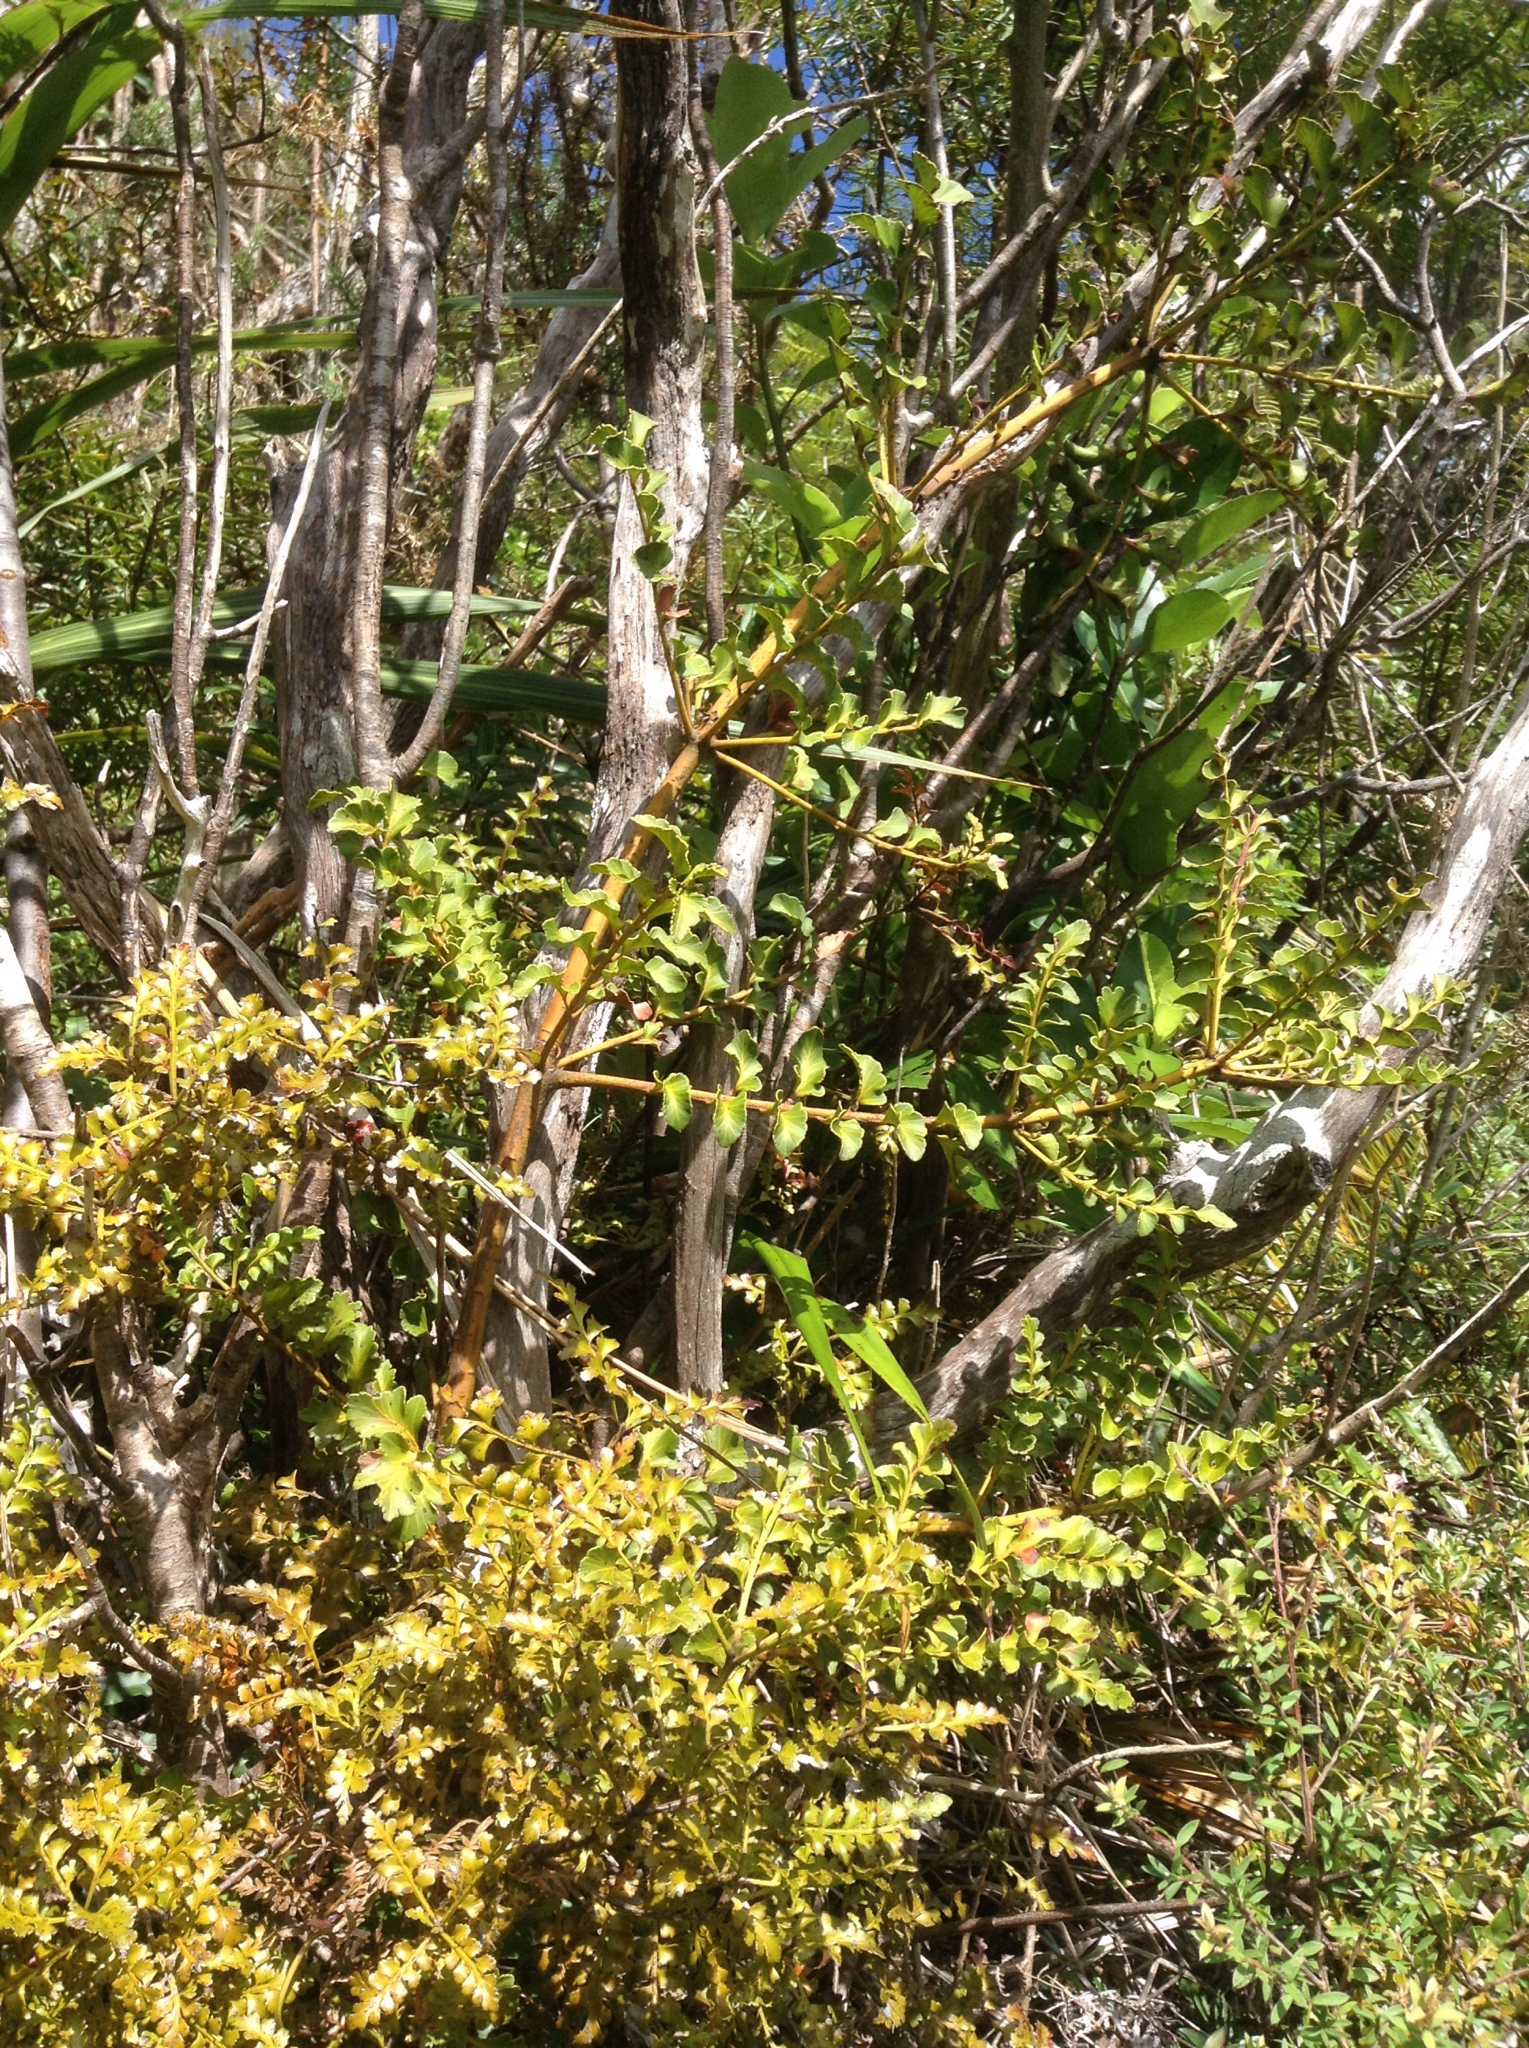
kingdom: Plantae
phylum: Tracheophyta
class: Pinopsida
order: Pinales
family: Phyllocladaceae
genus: Phyllocladus
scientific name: Phyllocladus toatoa
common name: Celery-top pine
